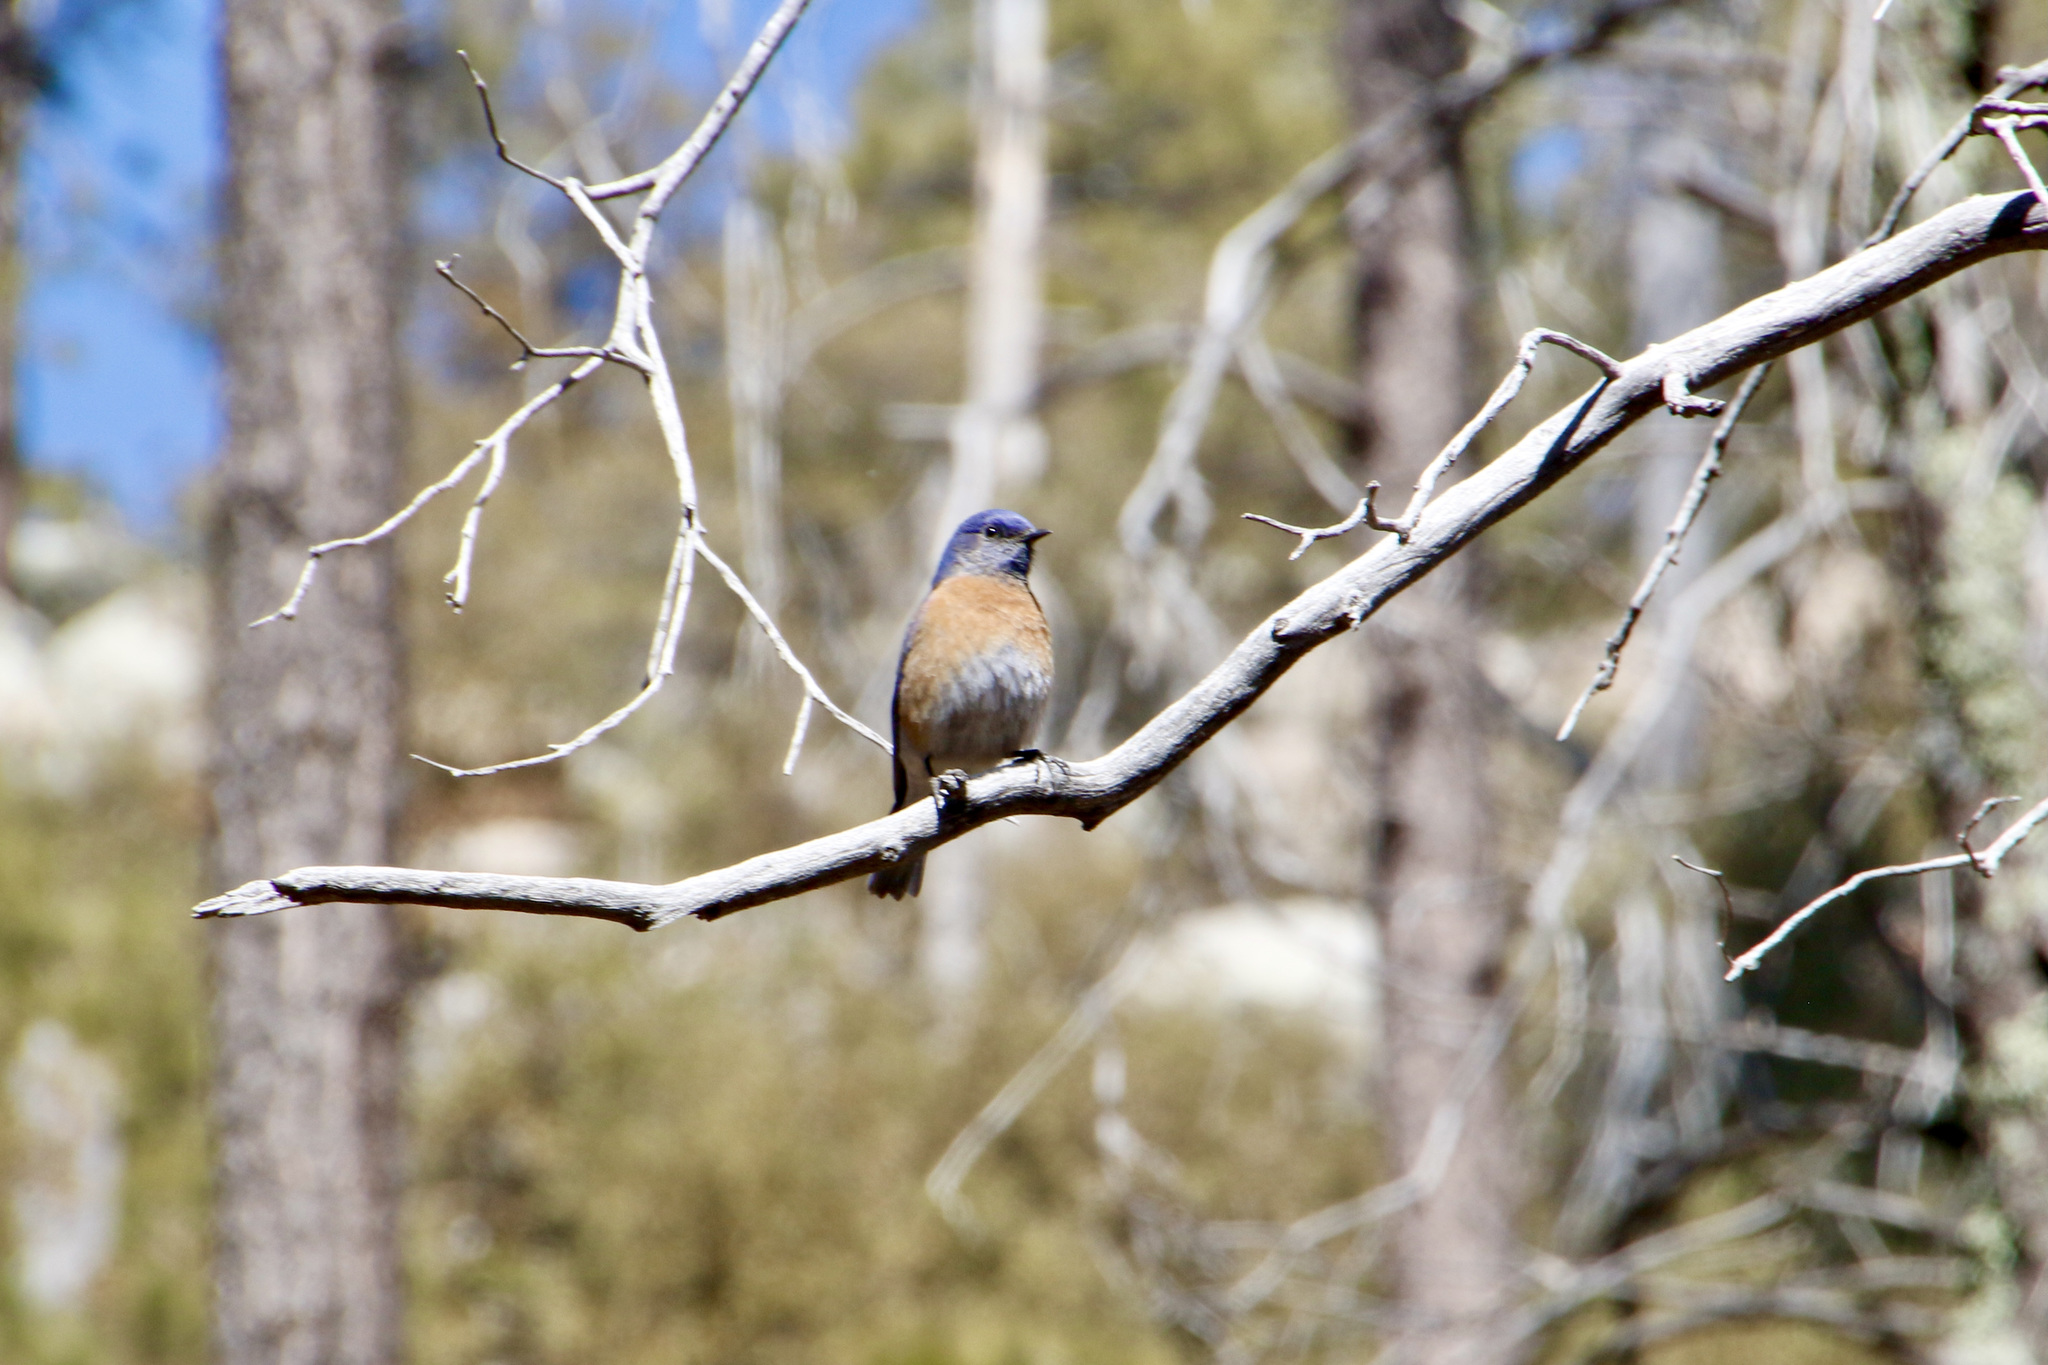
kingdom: Animalia
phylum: Chordata
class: Aves
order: Passeriformes
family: Turdidae
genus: Sialia
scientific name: Sialia mexicana
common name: Western bluebird
